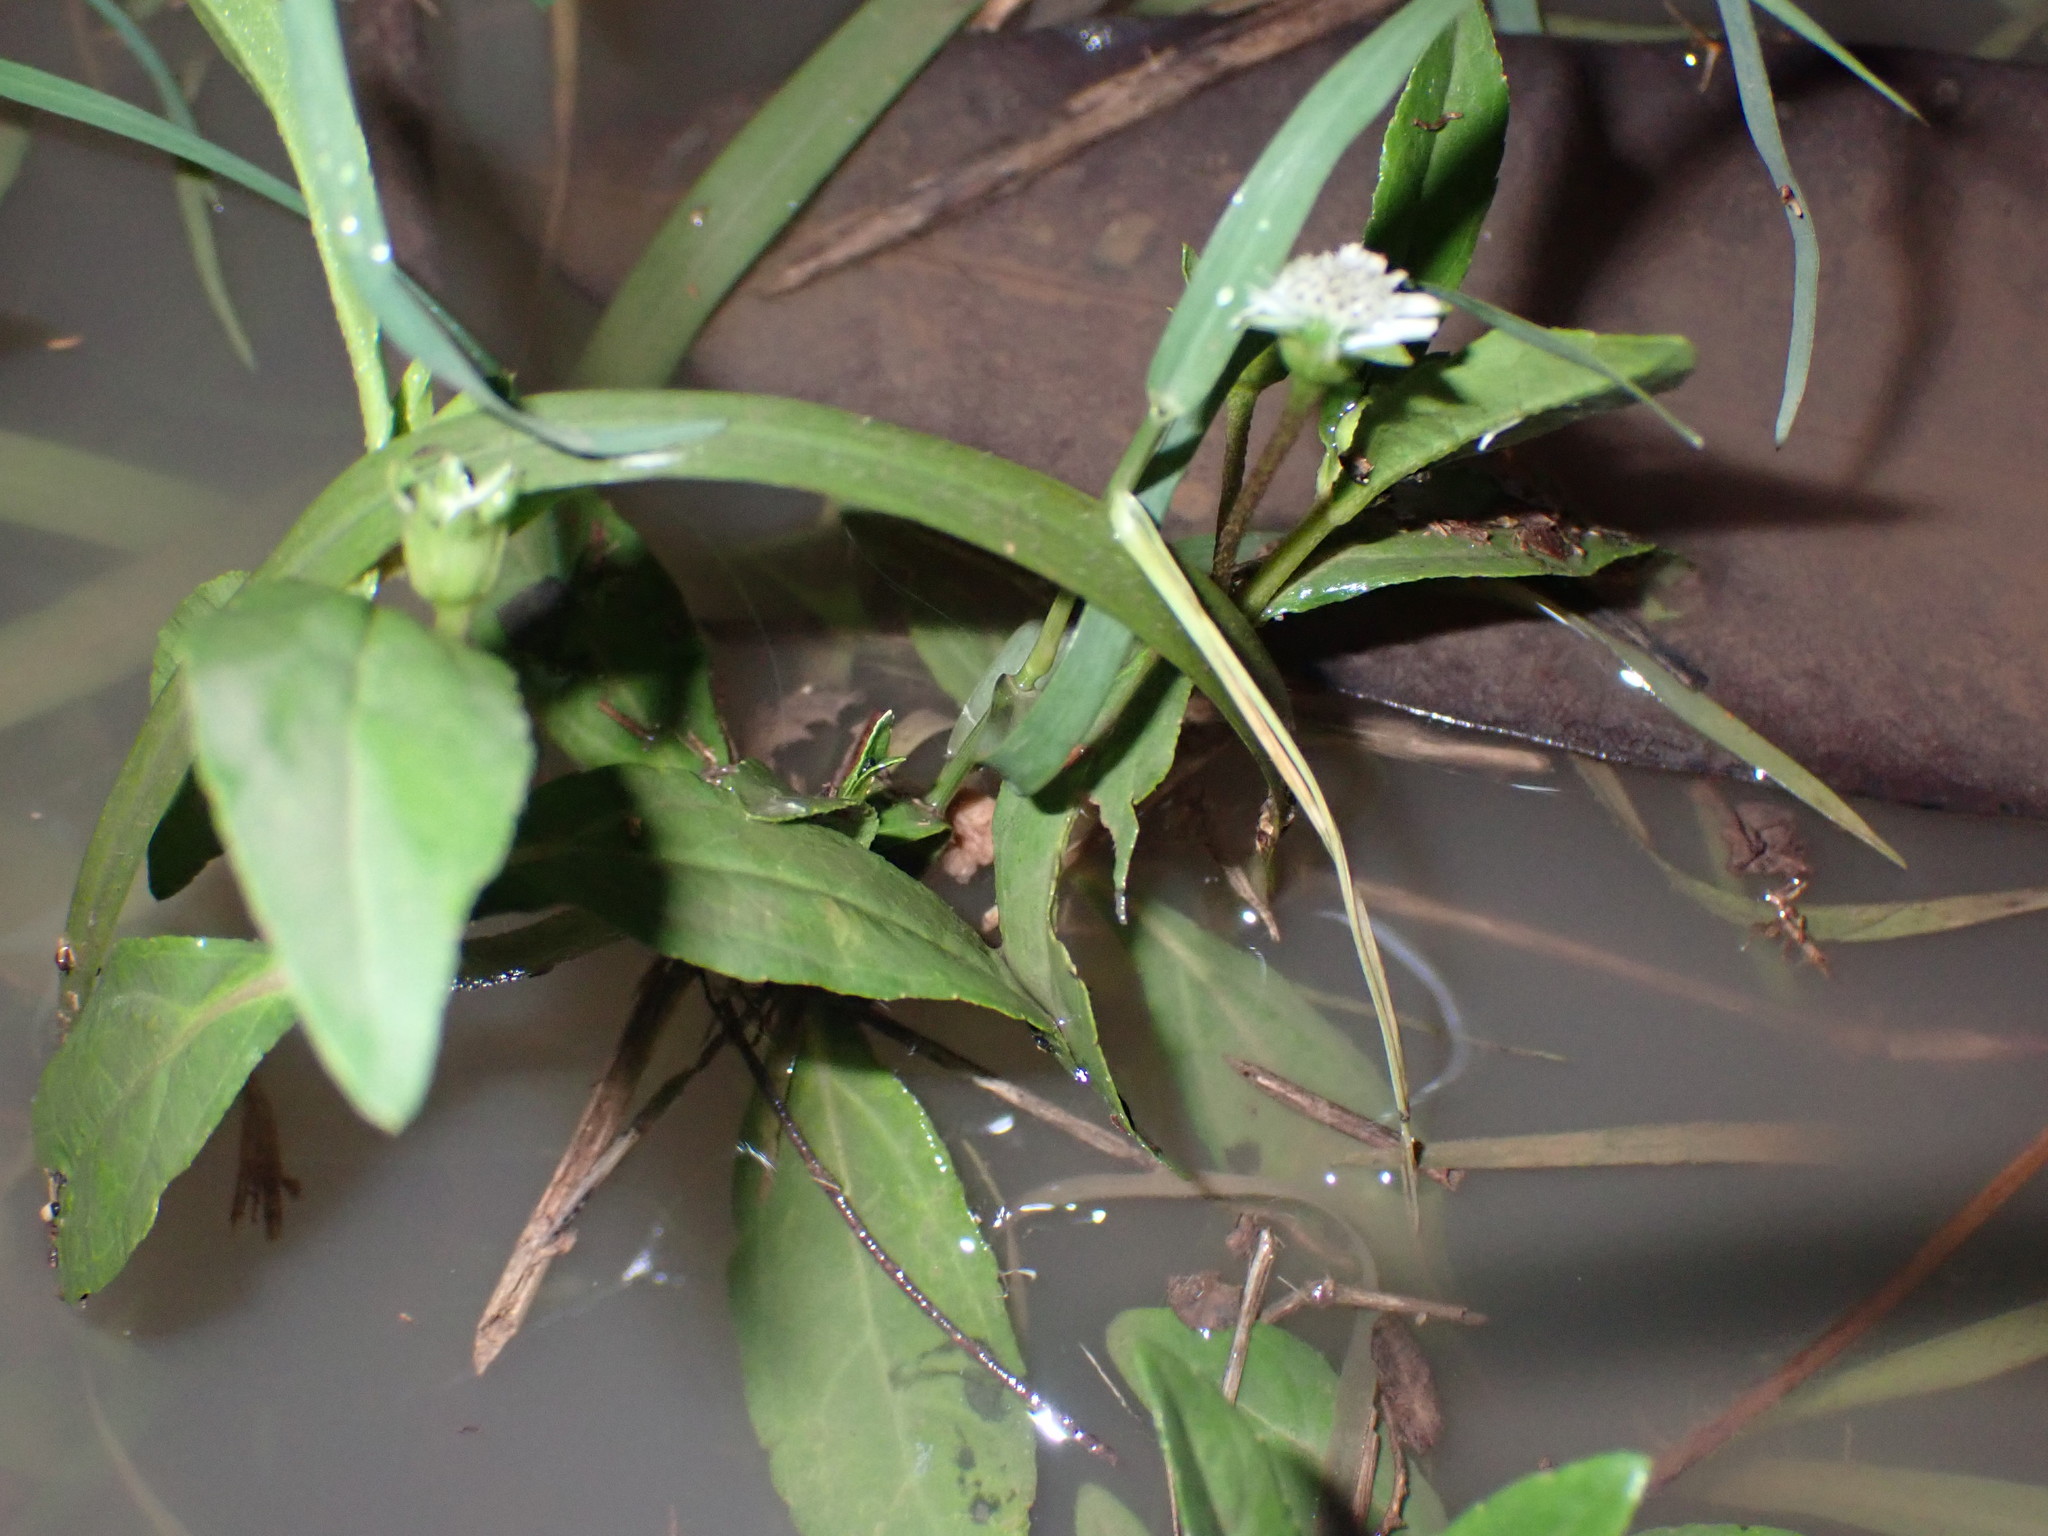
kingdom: Plantae
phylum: Tracheophyta
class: Magnoliopsida
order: Asterales
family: Asteraceae
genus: Eclipta
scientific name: Eclipta prostrata
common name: False daisy
